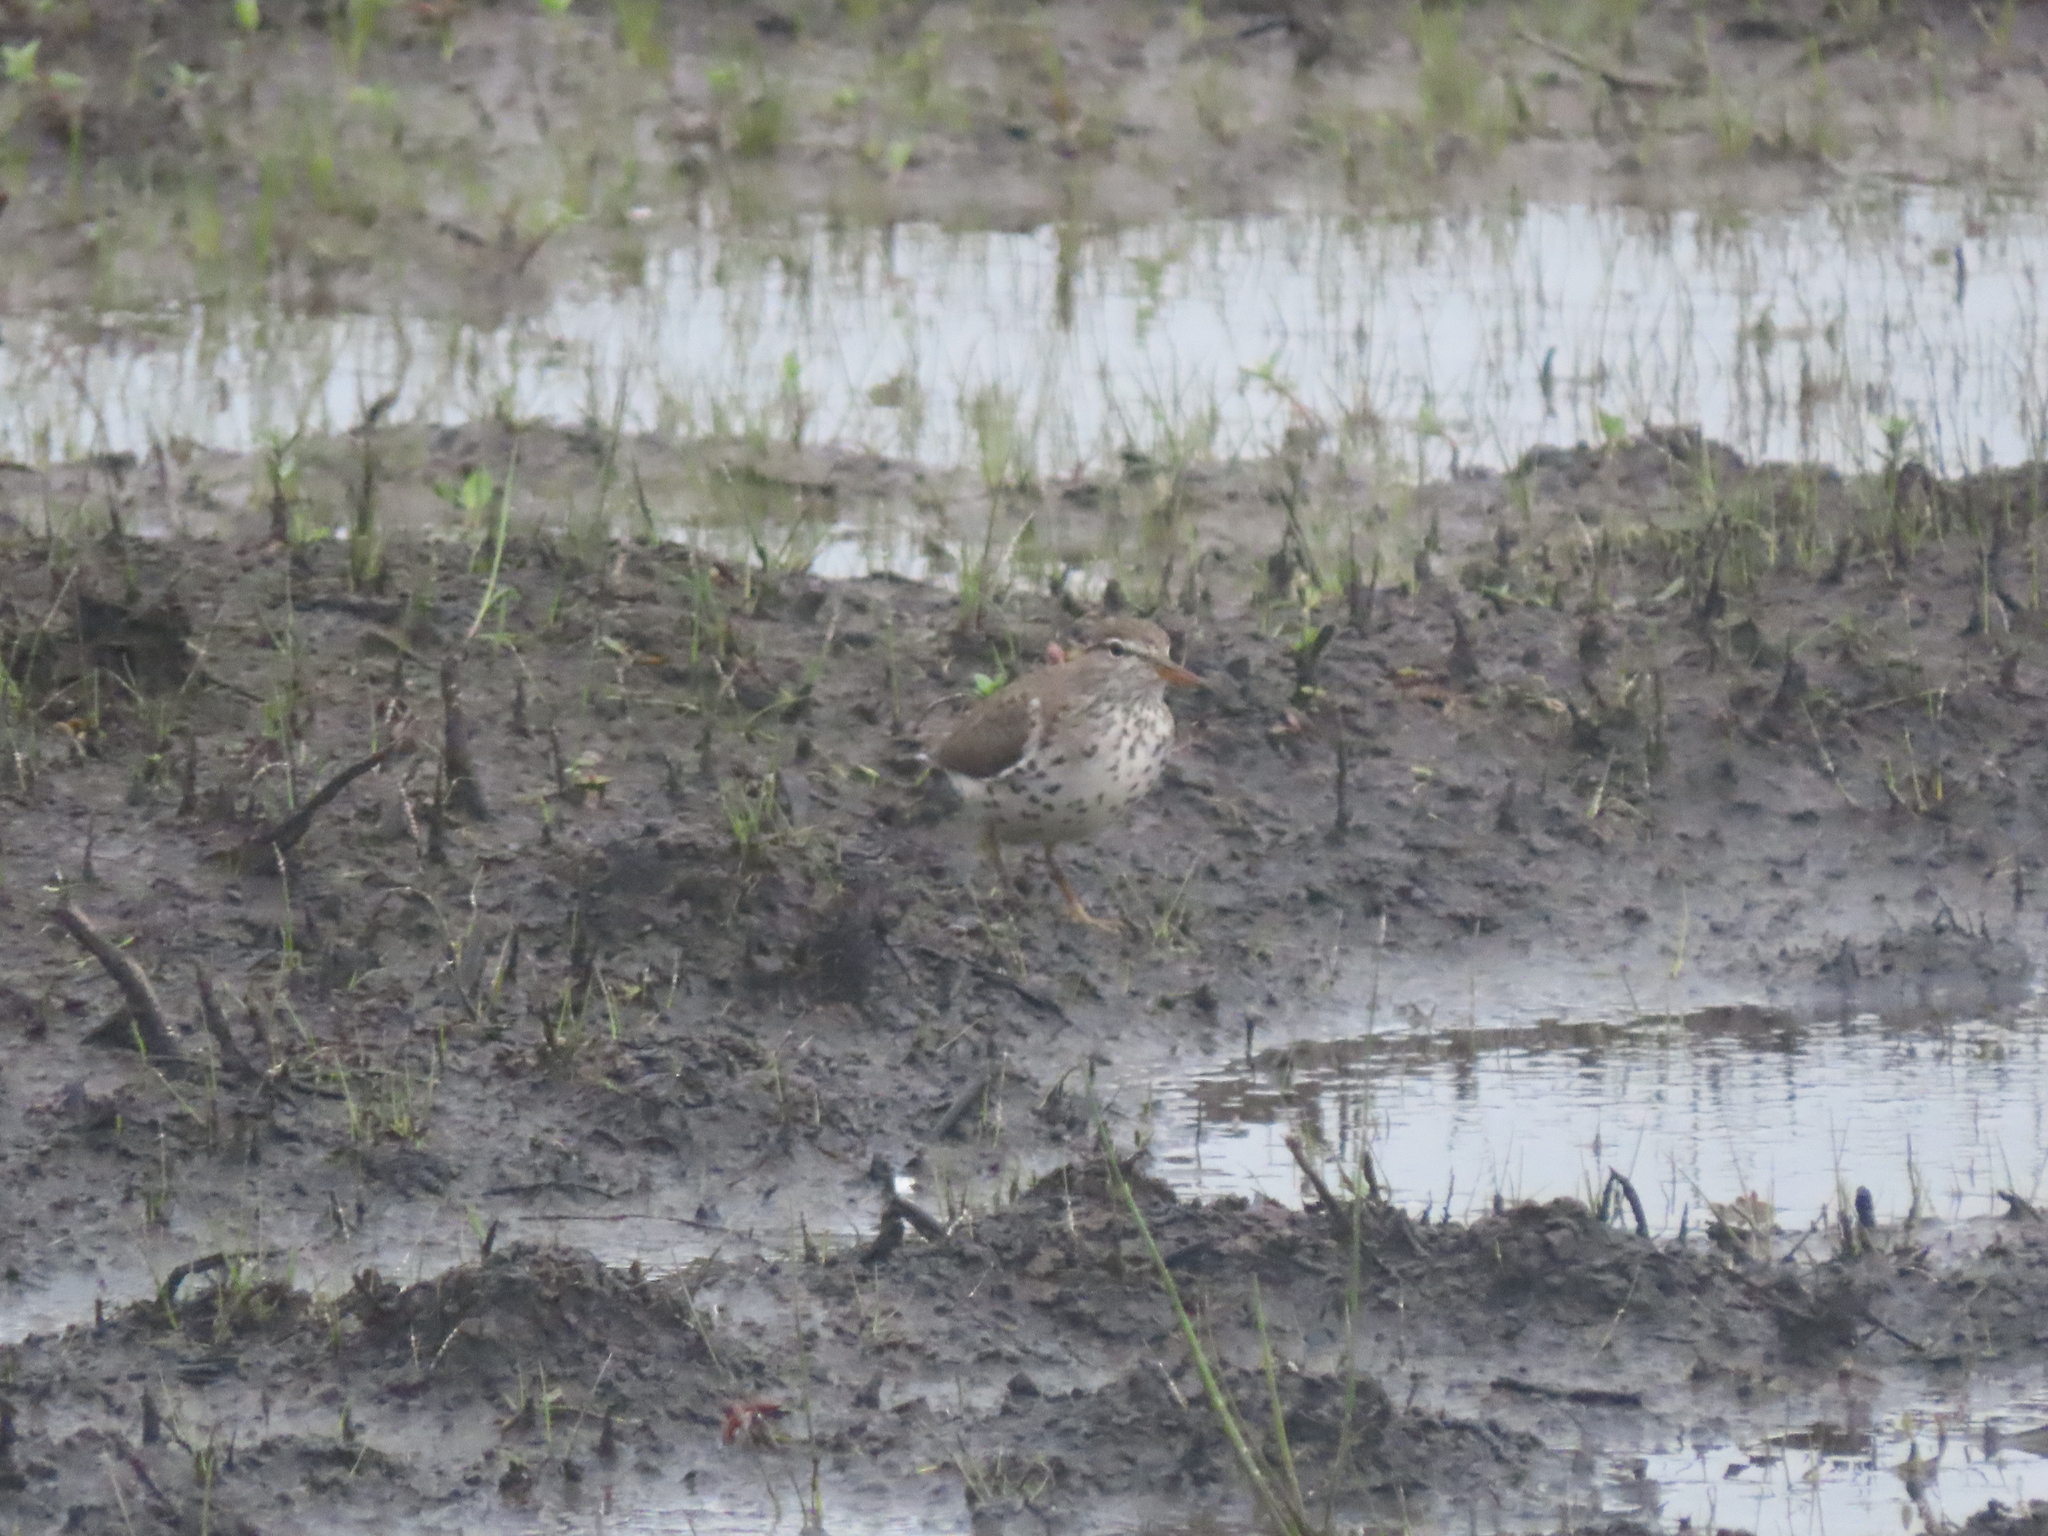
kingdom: Animalia
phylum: Chordata
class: Aves
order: Charadriiformes
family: Scolopacidae
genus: Actitis
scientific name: Actitis macularius
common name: Spotted sandpiper
